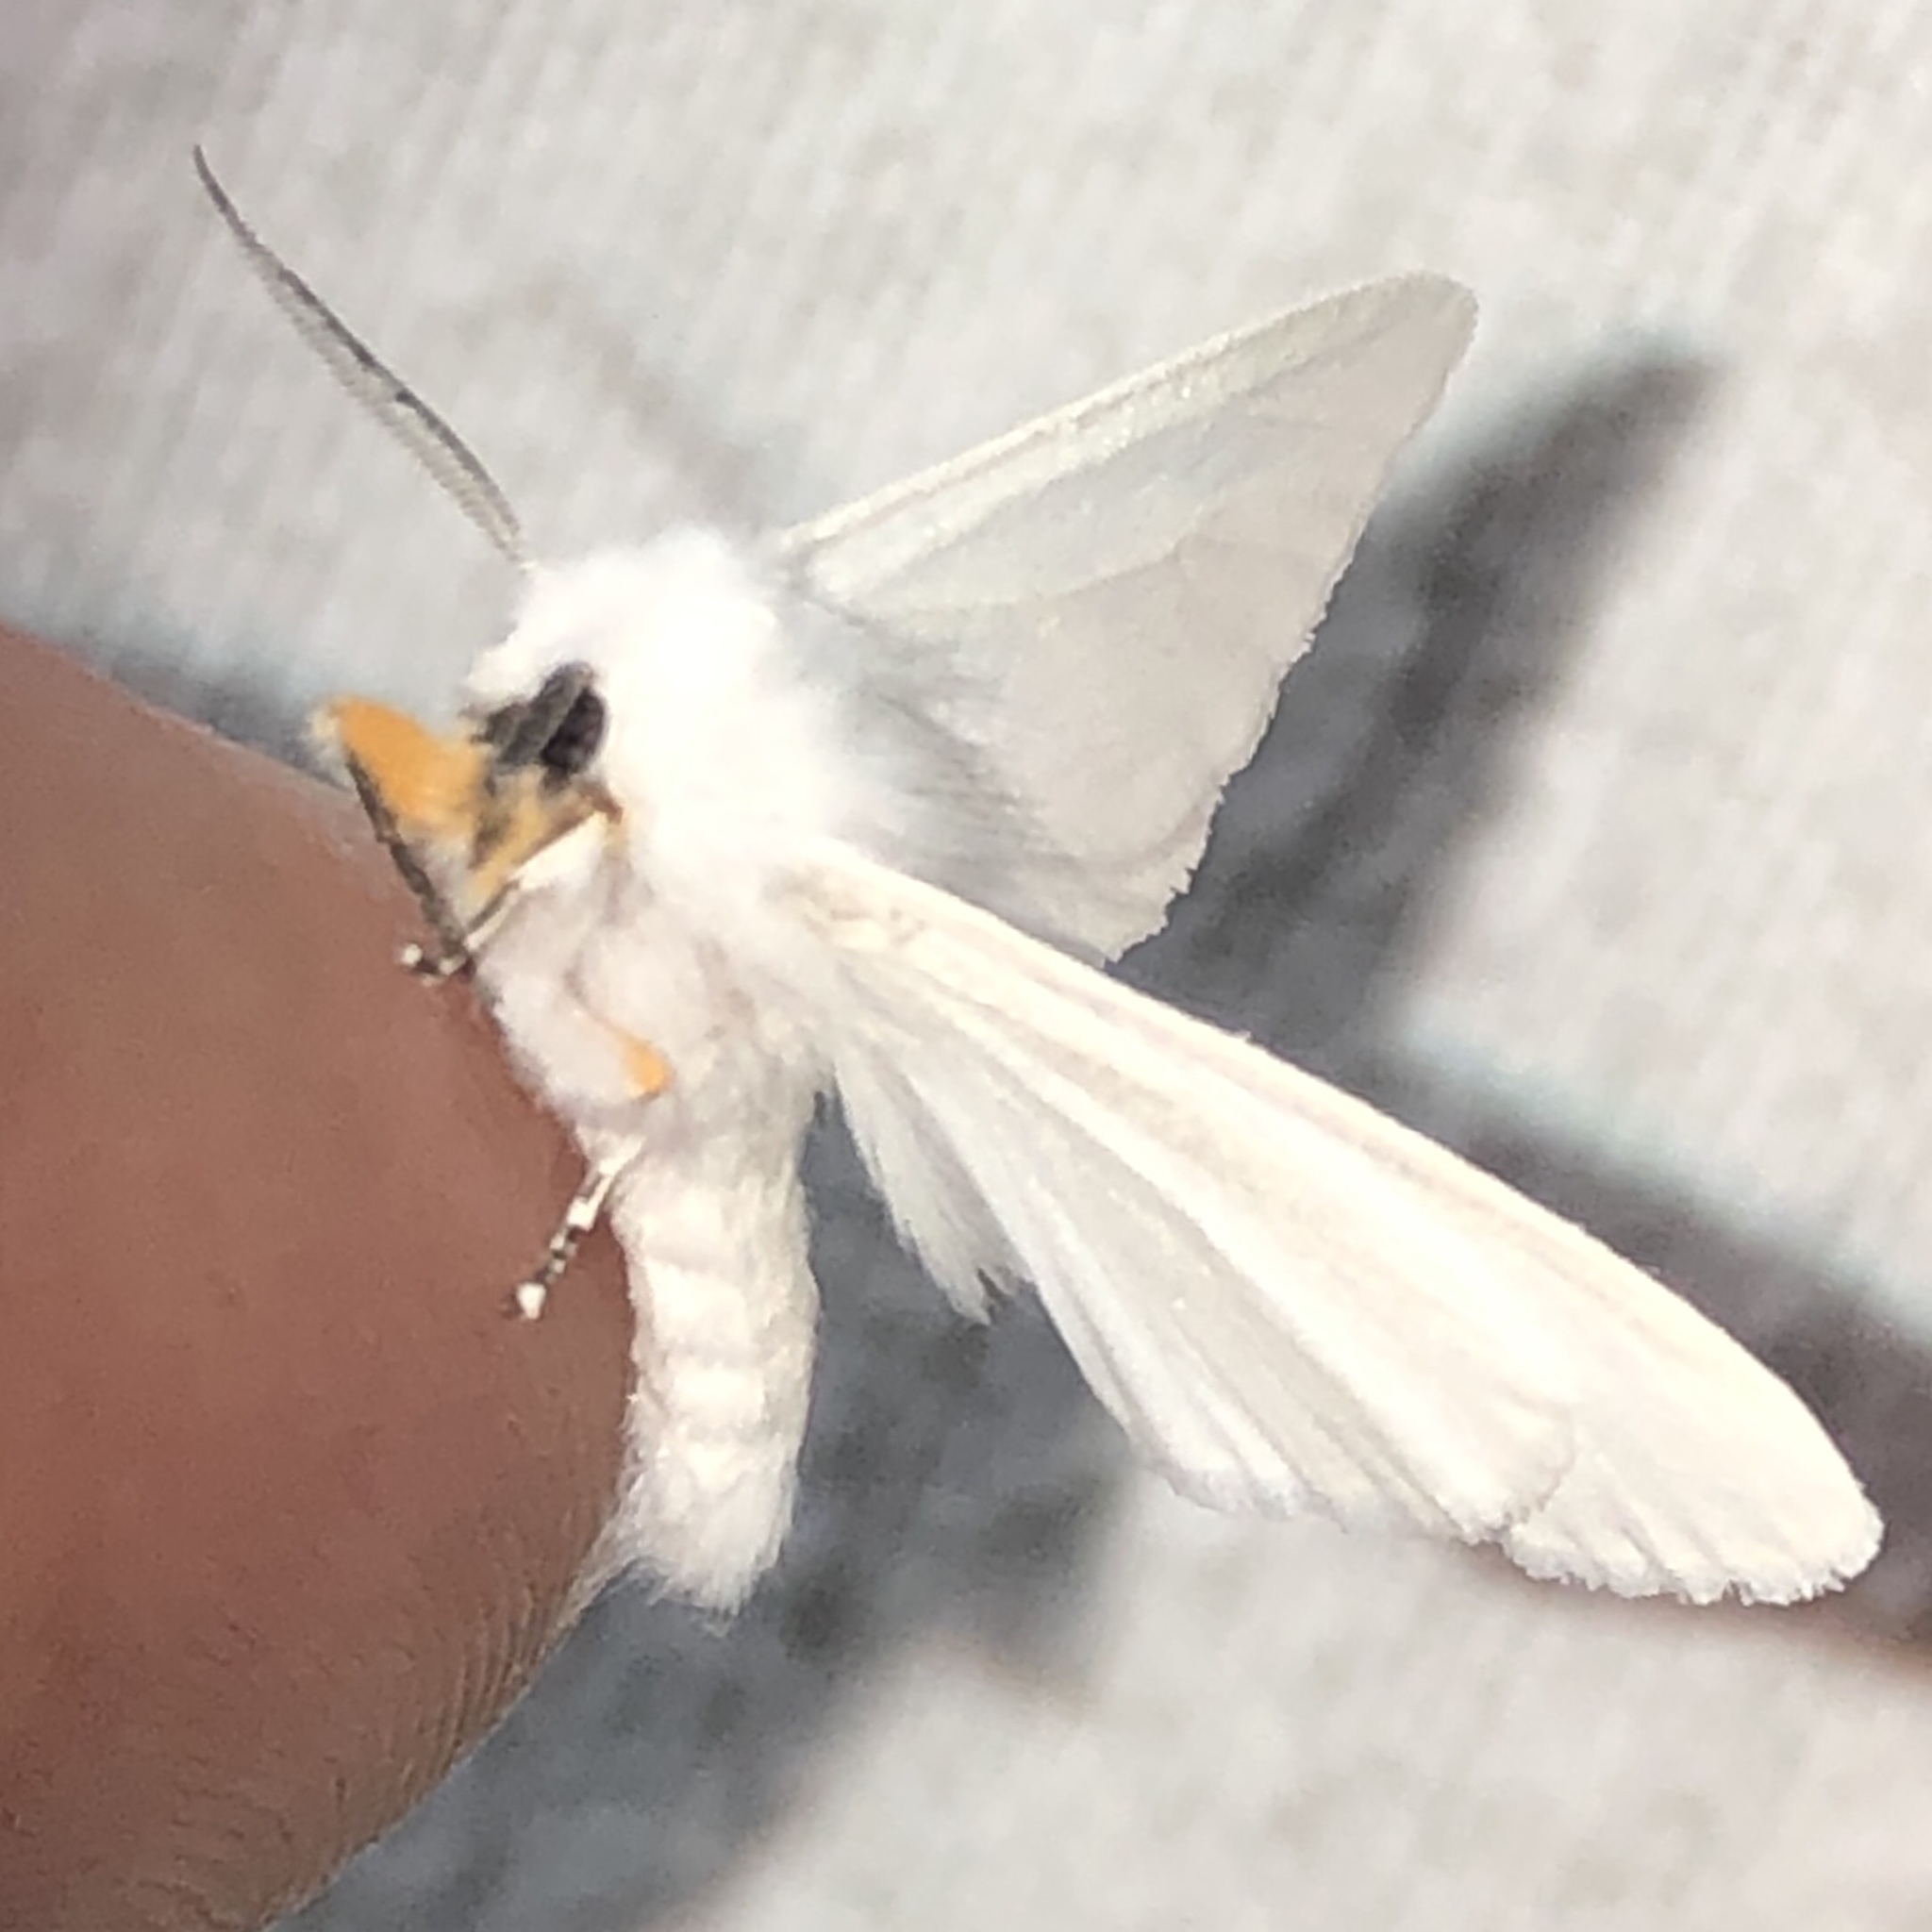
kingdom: Animalia
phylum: Arthropoda
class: Insecta
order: Lepidoptera
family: Erebidae
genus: Hyphantria
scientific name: Hyphantria cunea
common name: American white moth
